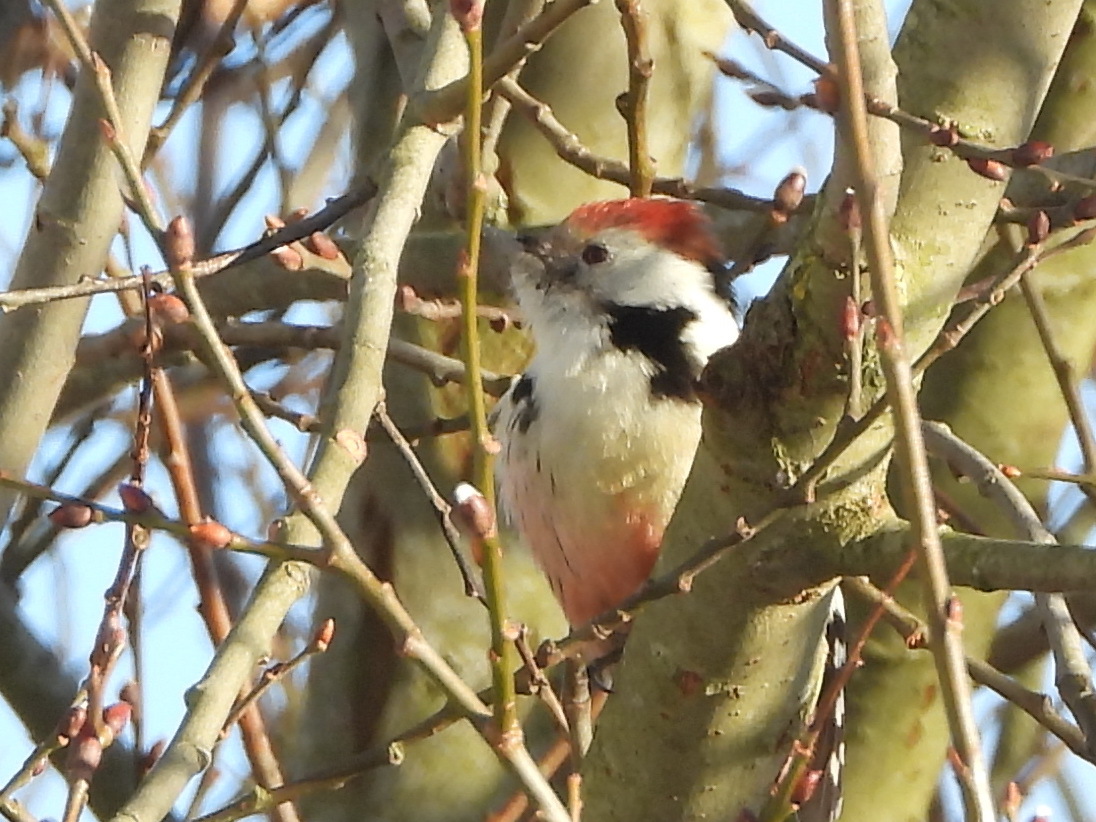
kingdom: Animalia
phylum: Chordata
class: Aves
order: Piciformes
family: Picidae
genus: Dendrocoptes
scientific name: Dendrocoptes medius
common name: Middle spotted woodpecker
